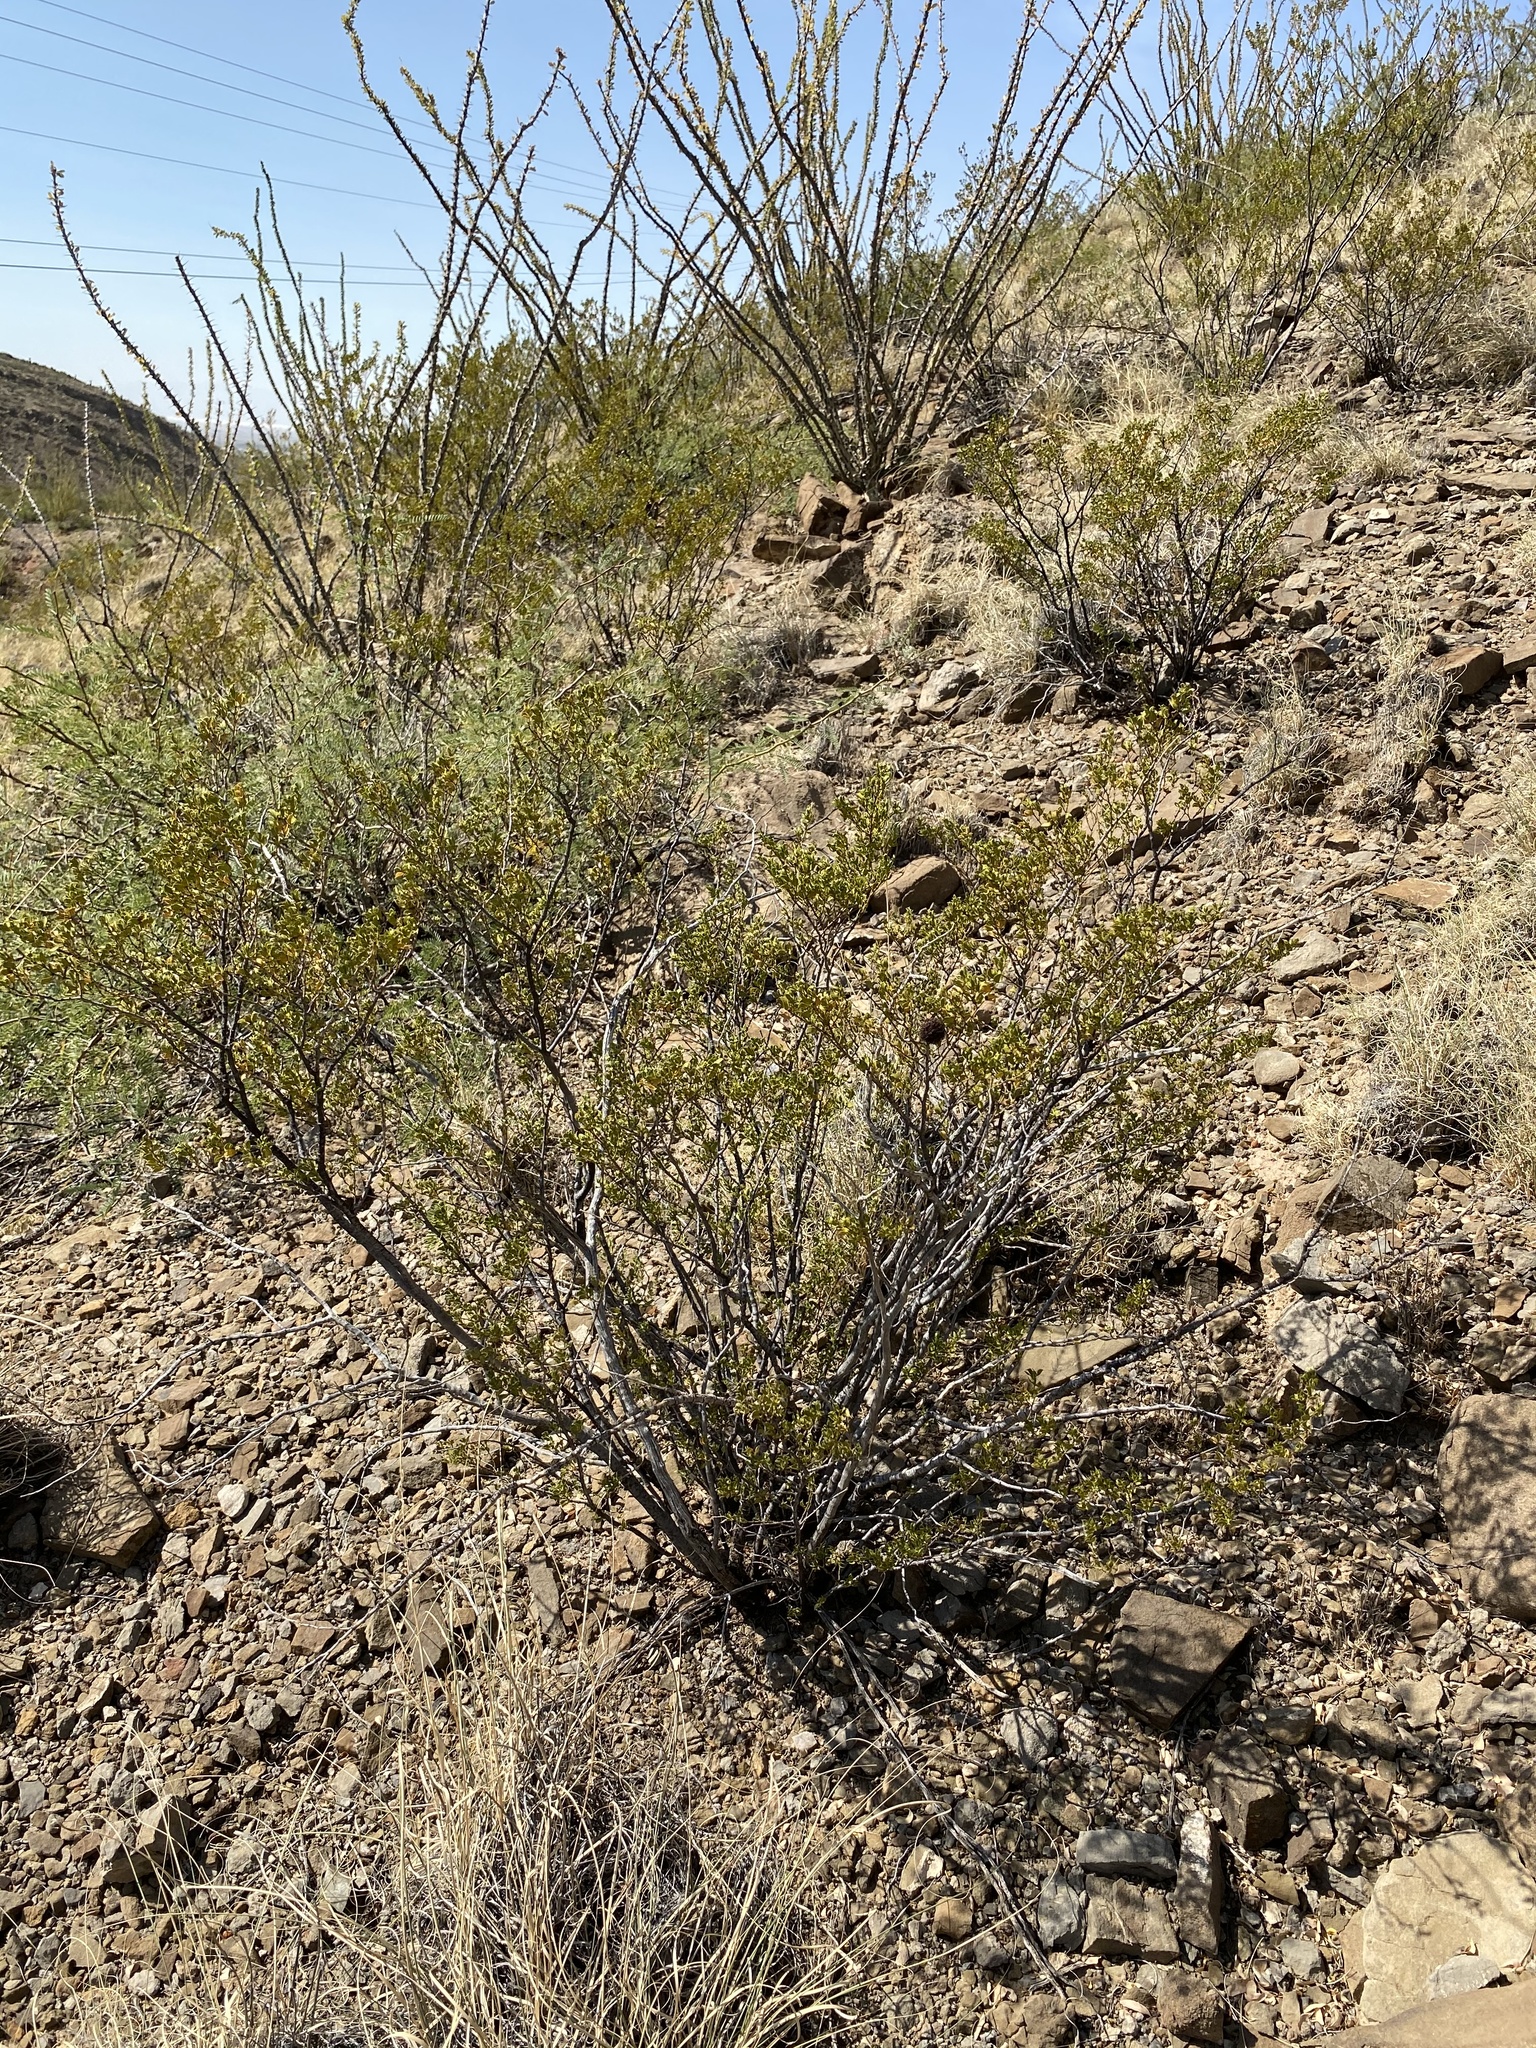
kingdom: Plantae
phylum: Tracheophyta
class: Magnoliopsida
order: Zygophyllales
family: Zygophyllaceae
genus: Larrea
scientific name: Larrea tridentata
